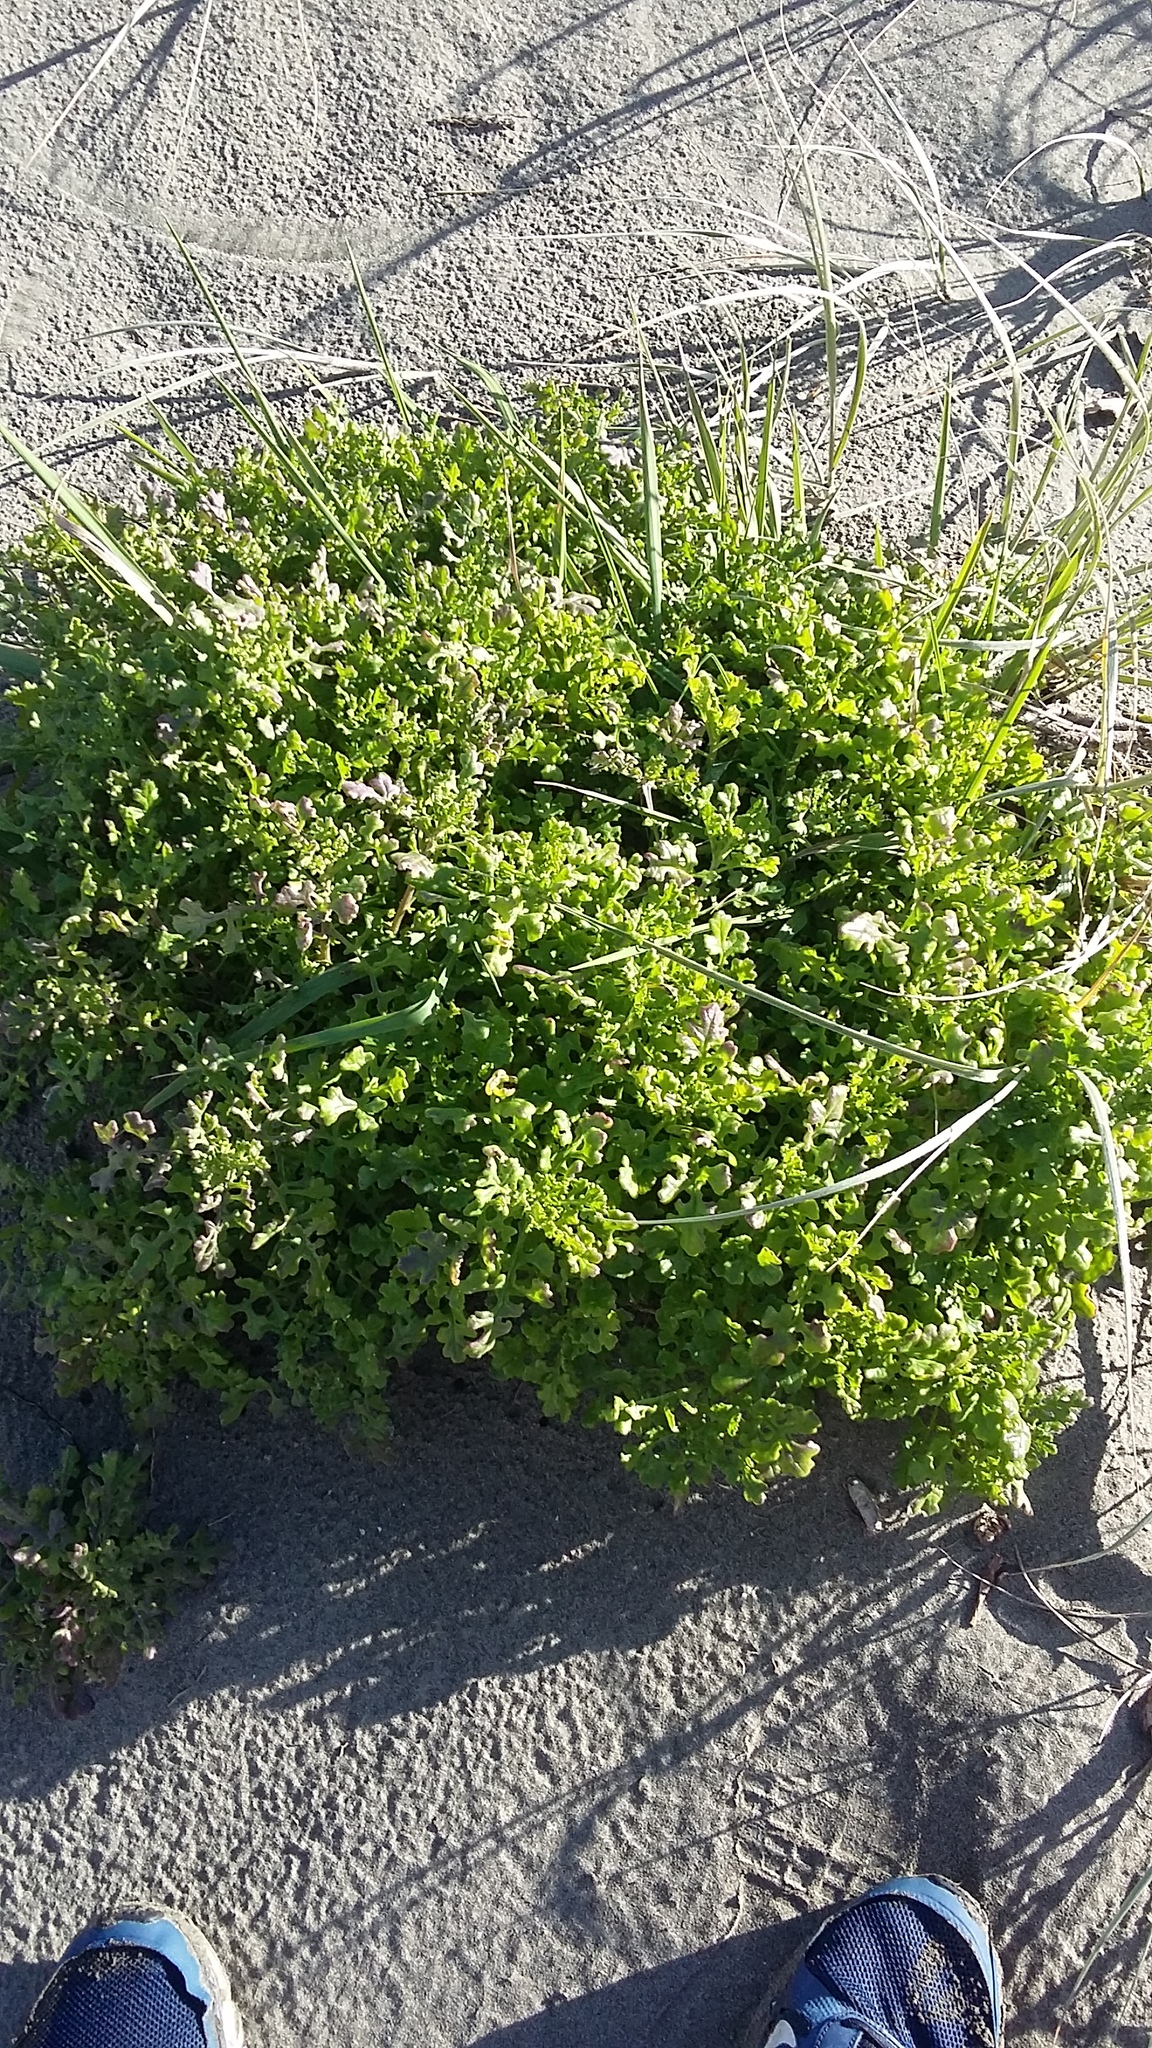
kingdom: Plantae
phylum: Tracheophyta
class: Magnoliopsida
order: Asterales
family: Asteraceae
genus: Senecio
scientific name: Senecio elegans
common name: Purple groundsel
